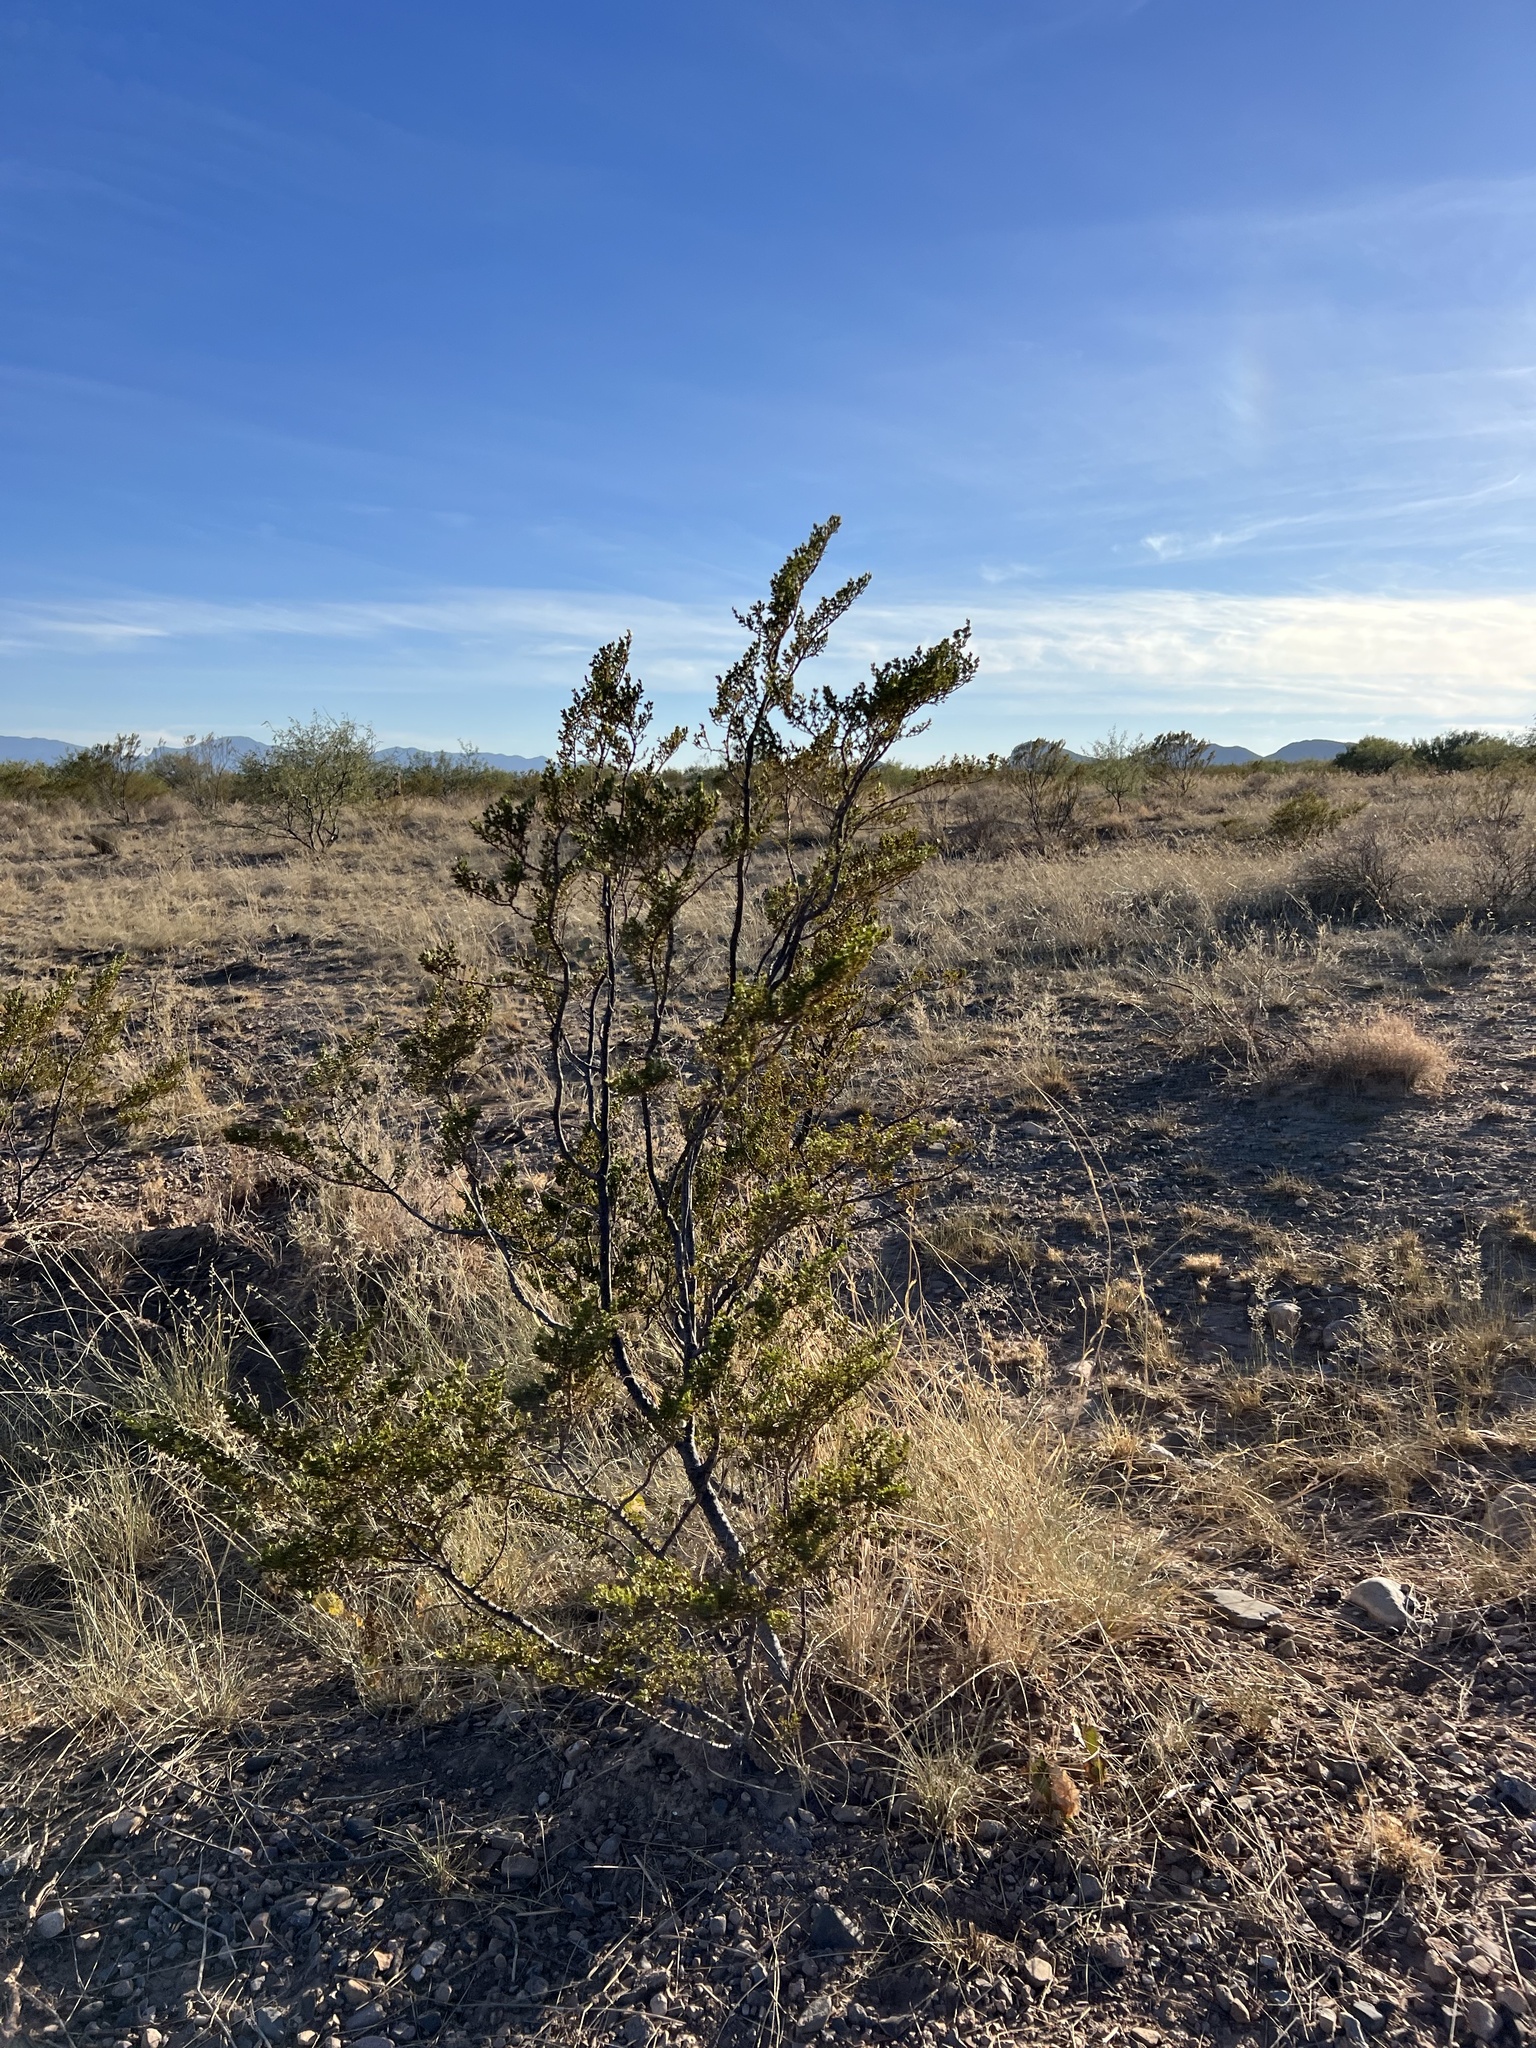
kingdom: Plantae
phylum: Tracheophyta
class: Magnoliopsida
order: Zygophyllales
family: Zygophyllaceae
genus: Larrea
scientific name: Larrea tridentata
